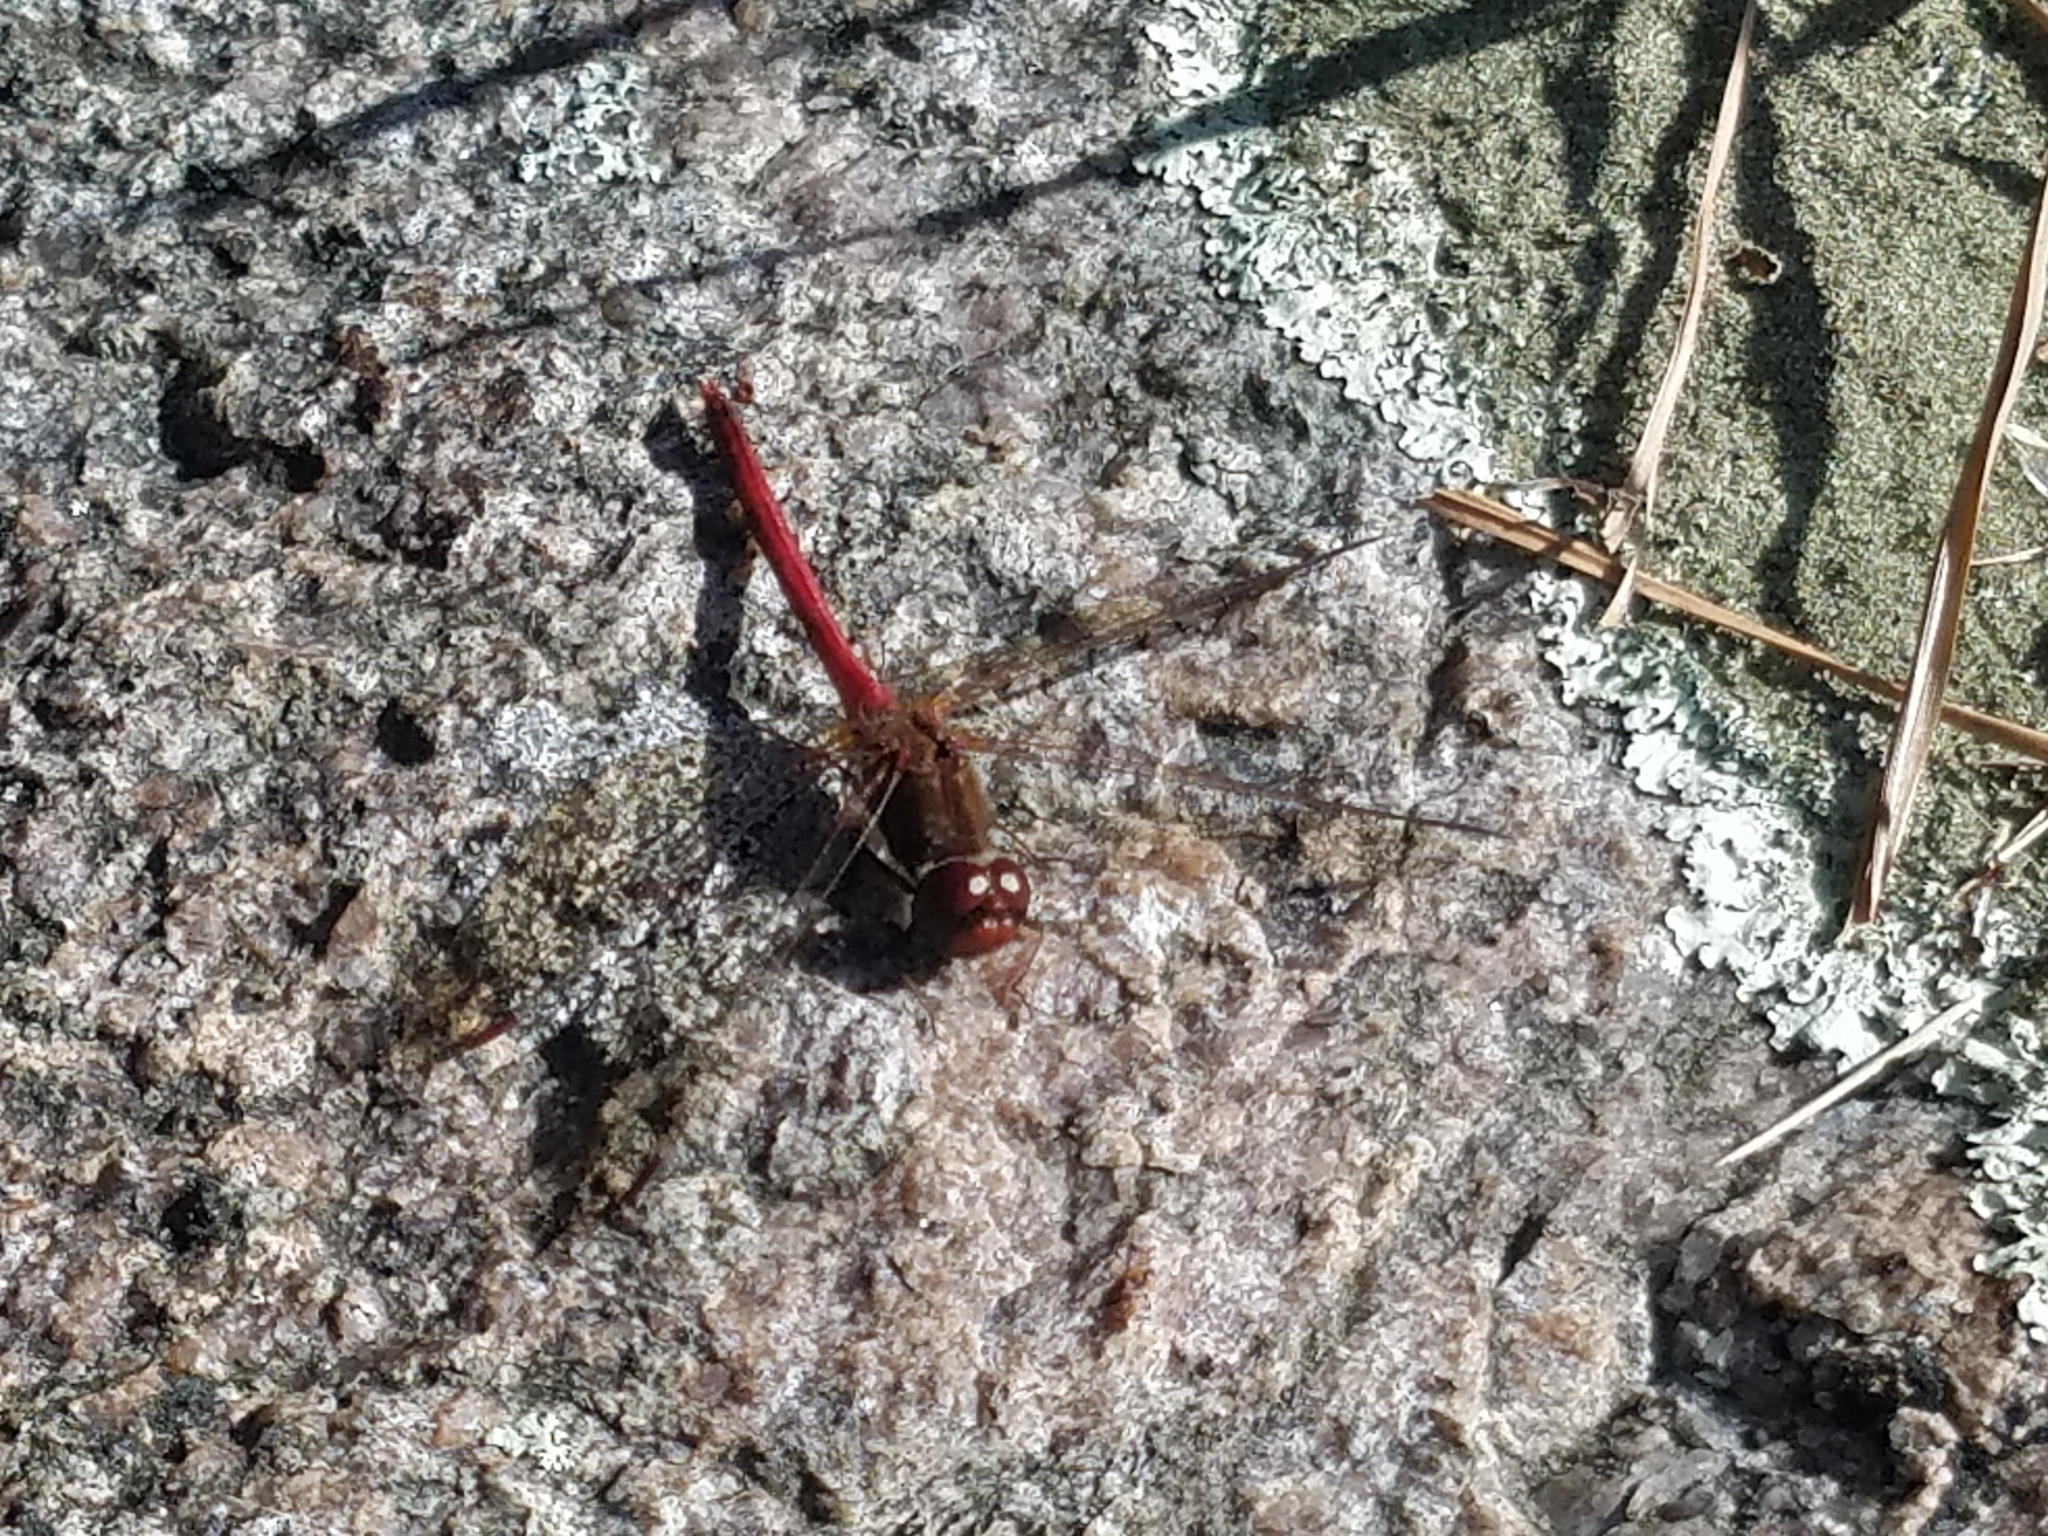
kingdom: Animalia
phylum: Arthropoda
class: Insecta
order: Odonata
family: Libellulidae
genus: Sympetrum
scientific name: Sympetrum vicinum
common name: Autumn meadowhawk
